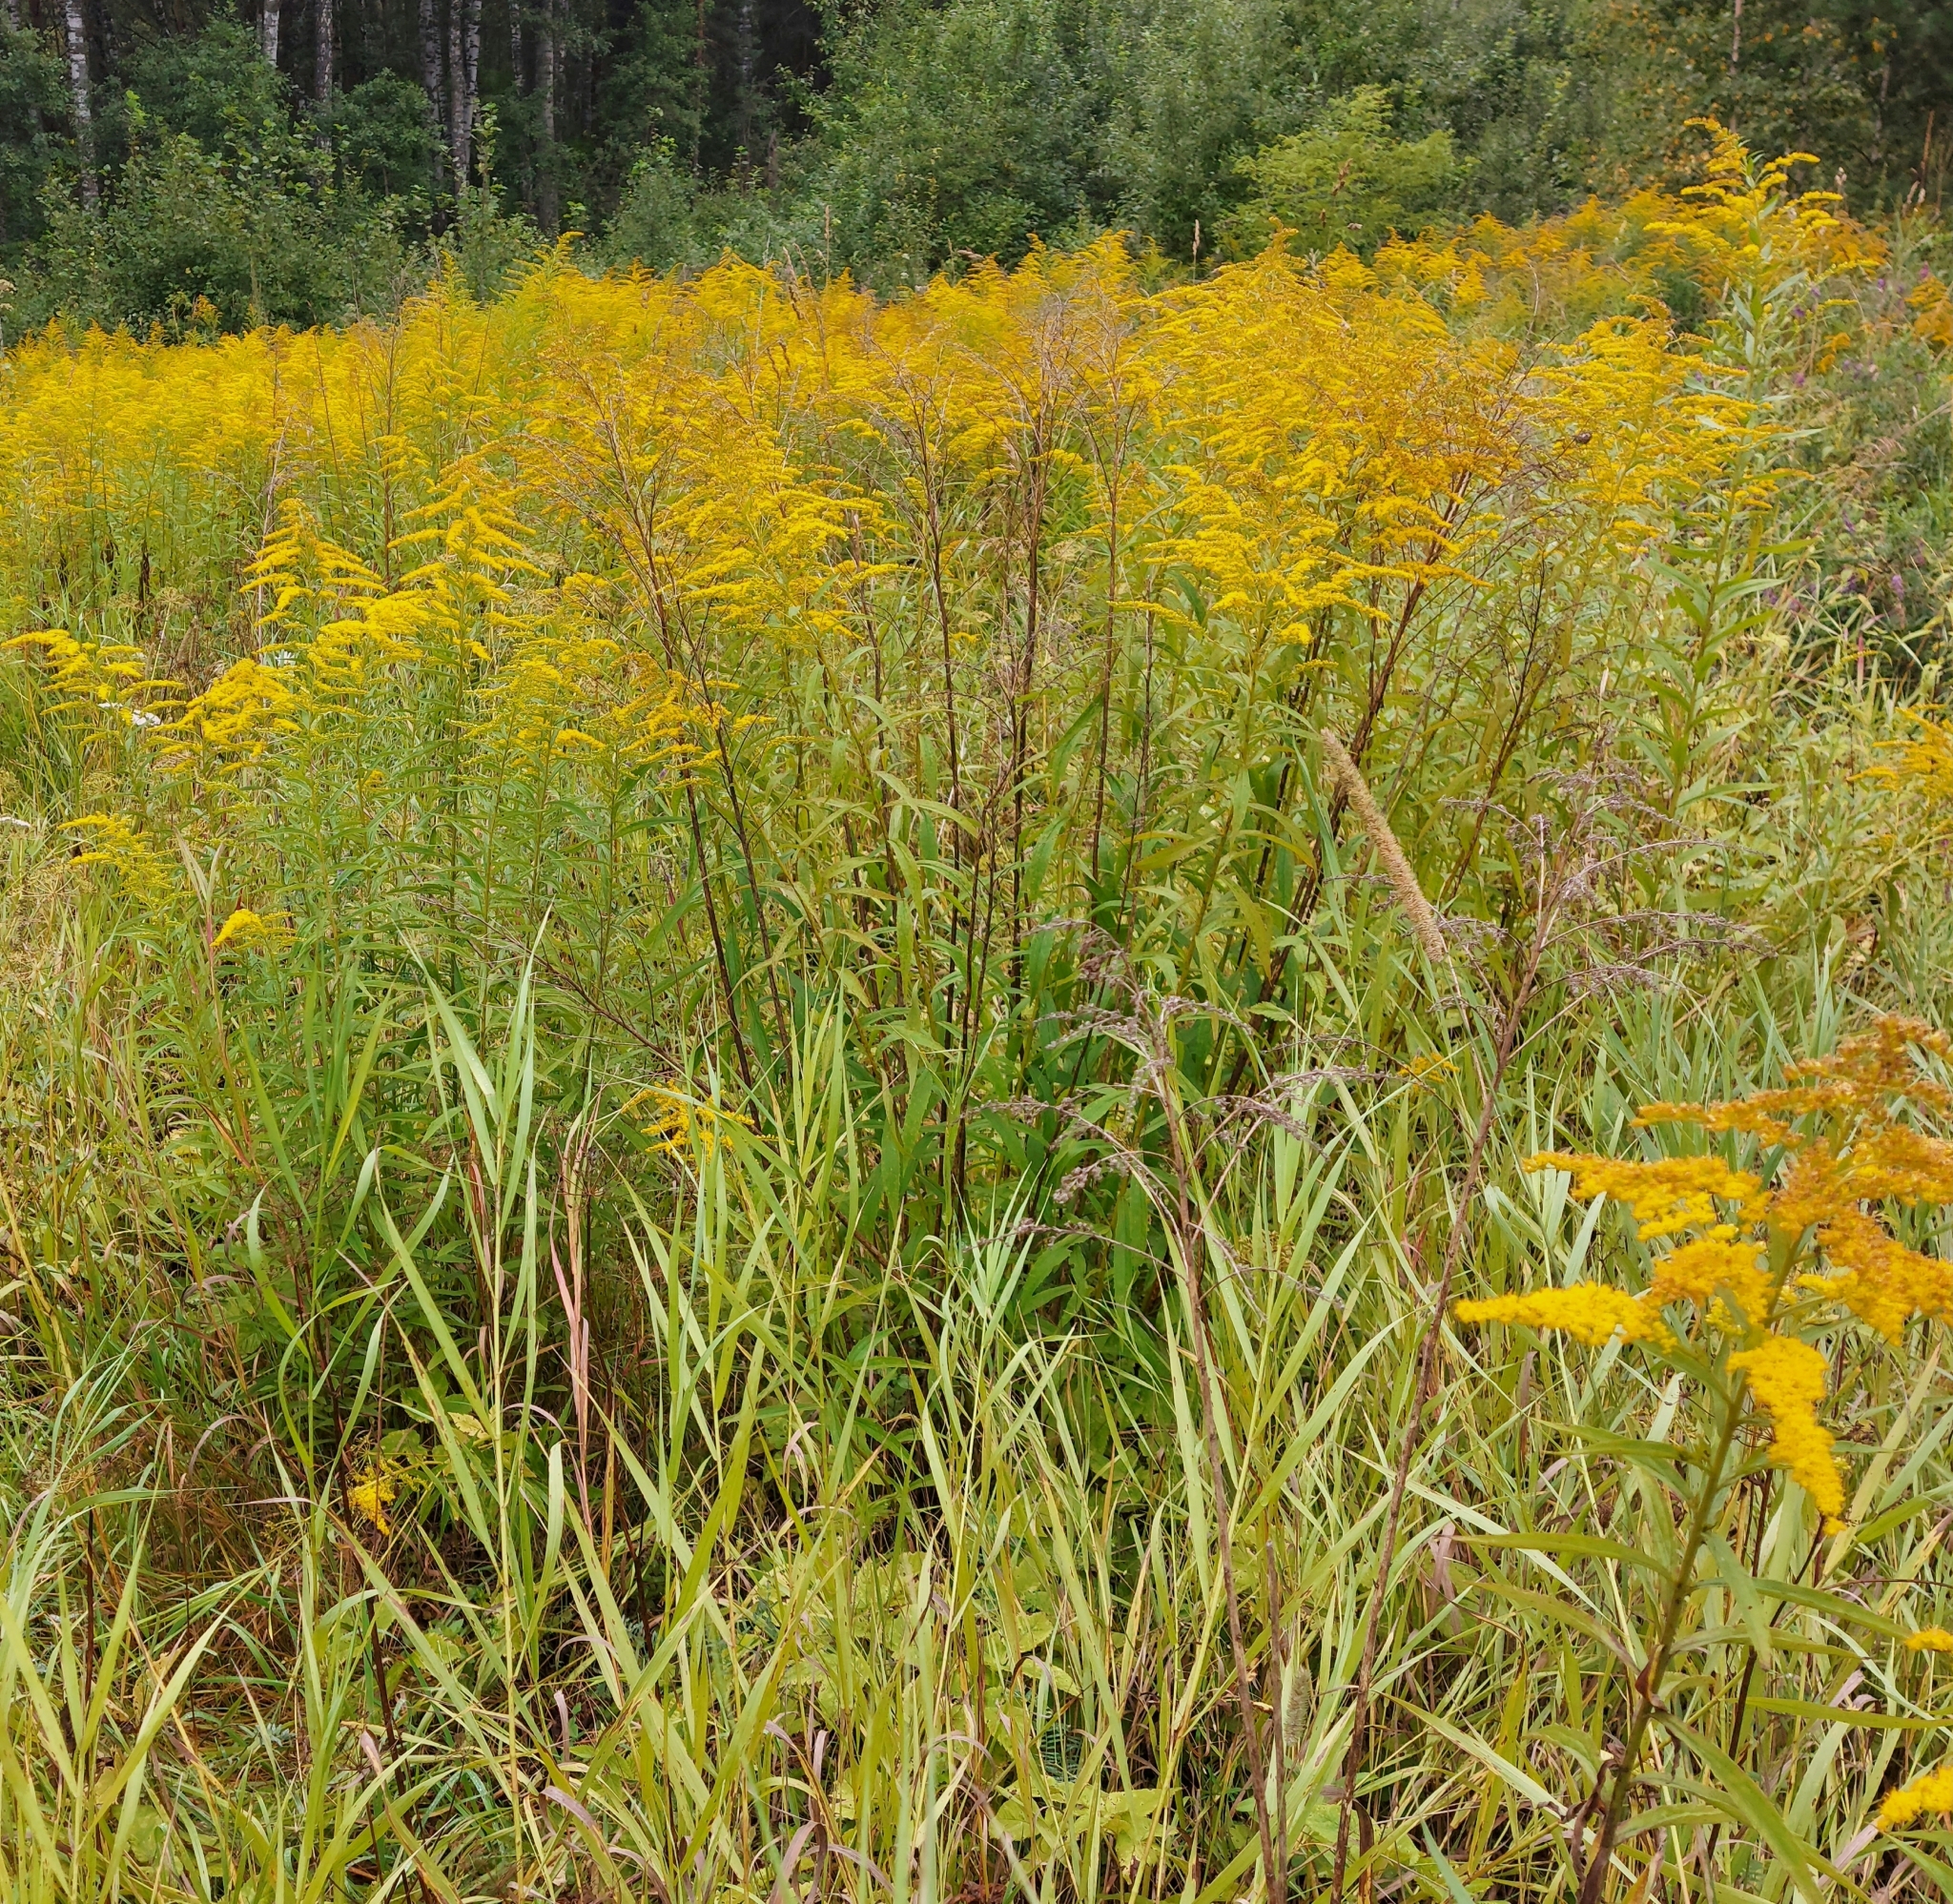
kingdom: Plantae
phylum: Tracheophyta
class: Magnoliopsida
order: Asterales
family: Asteraceae
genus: Solidago
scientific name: Solidago canadensis
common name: Canada goldenrod
